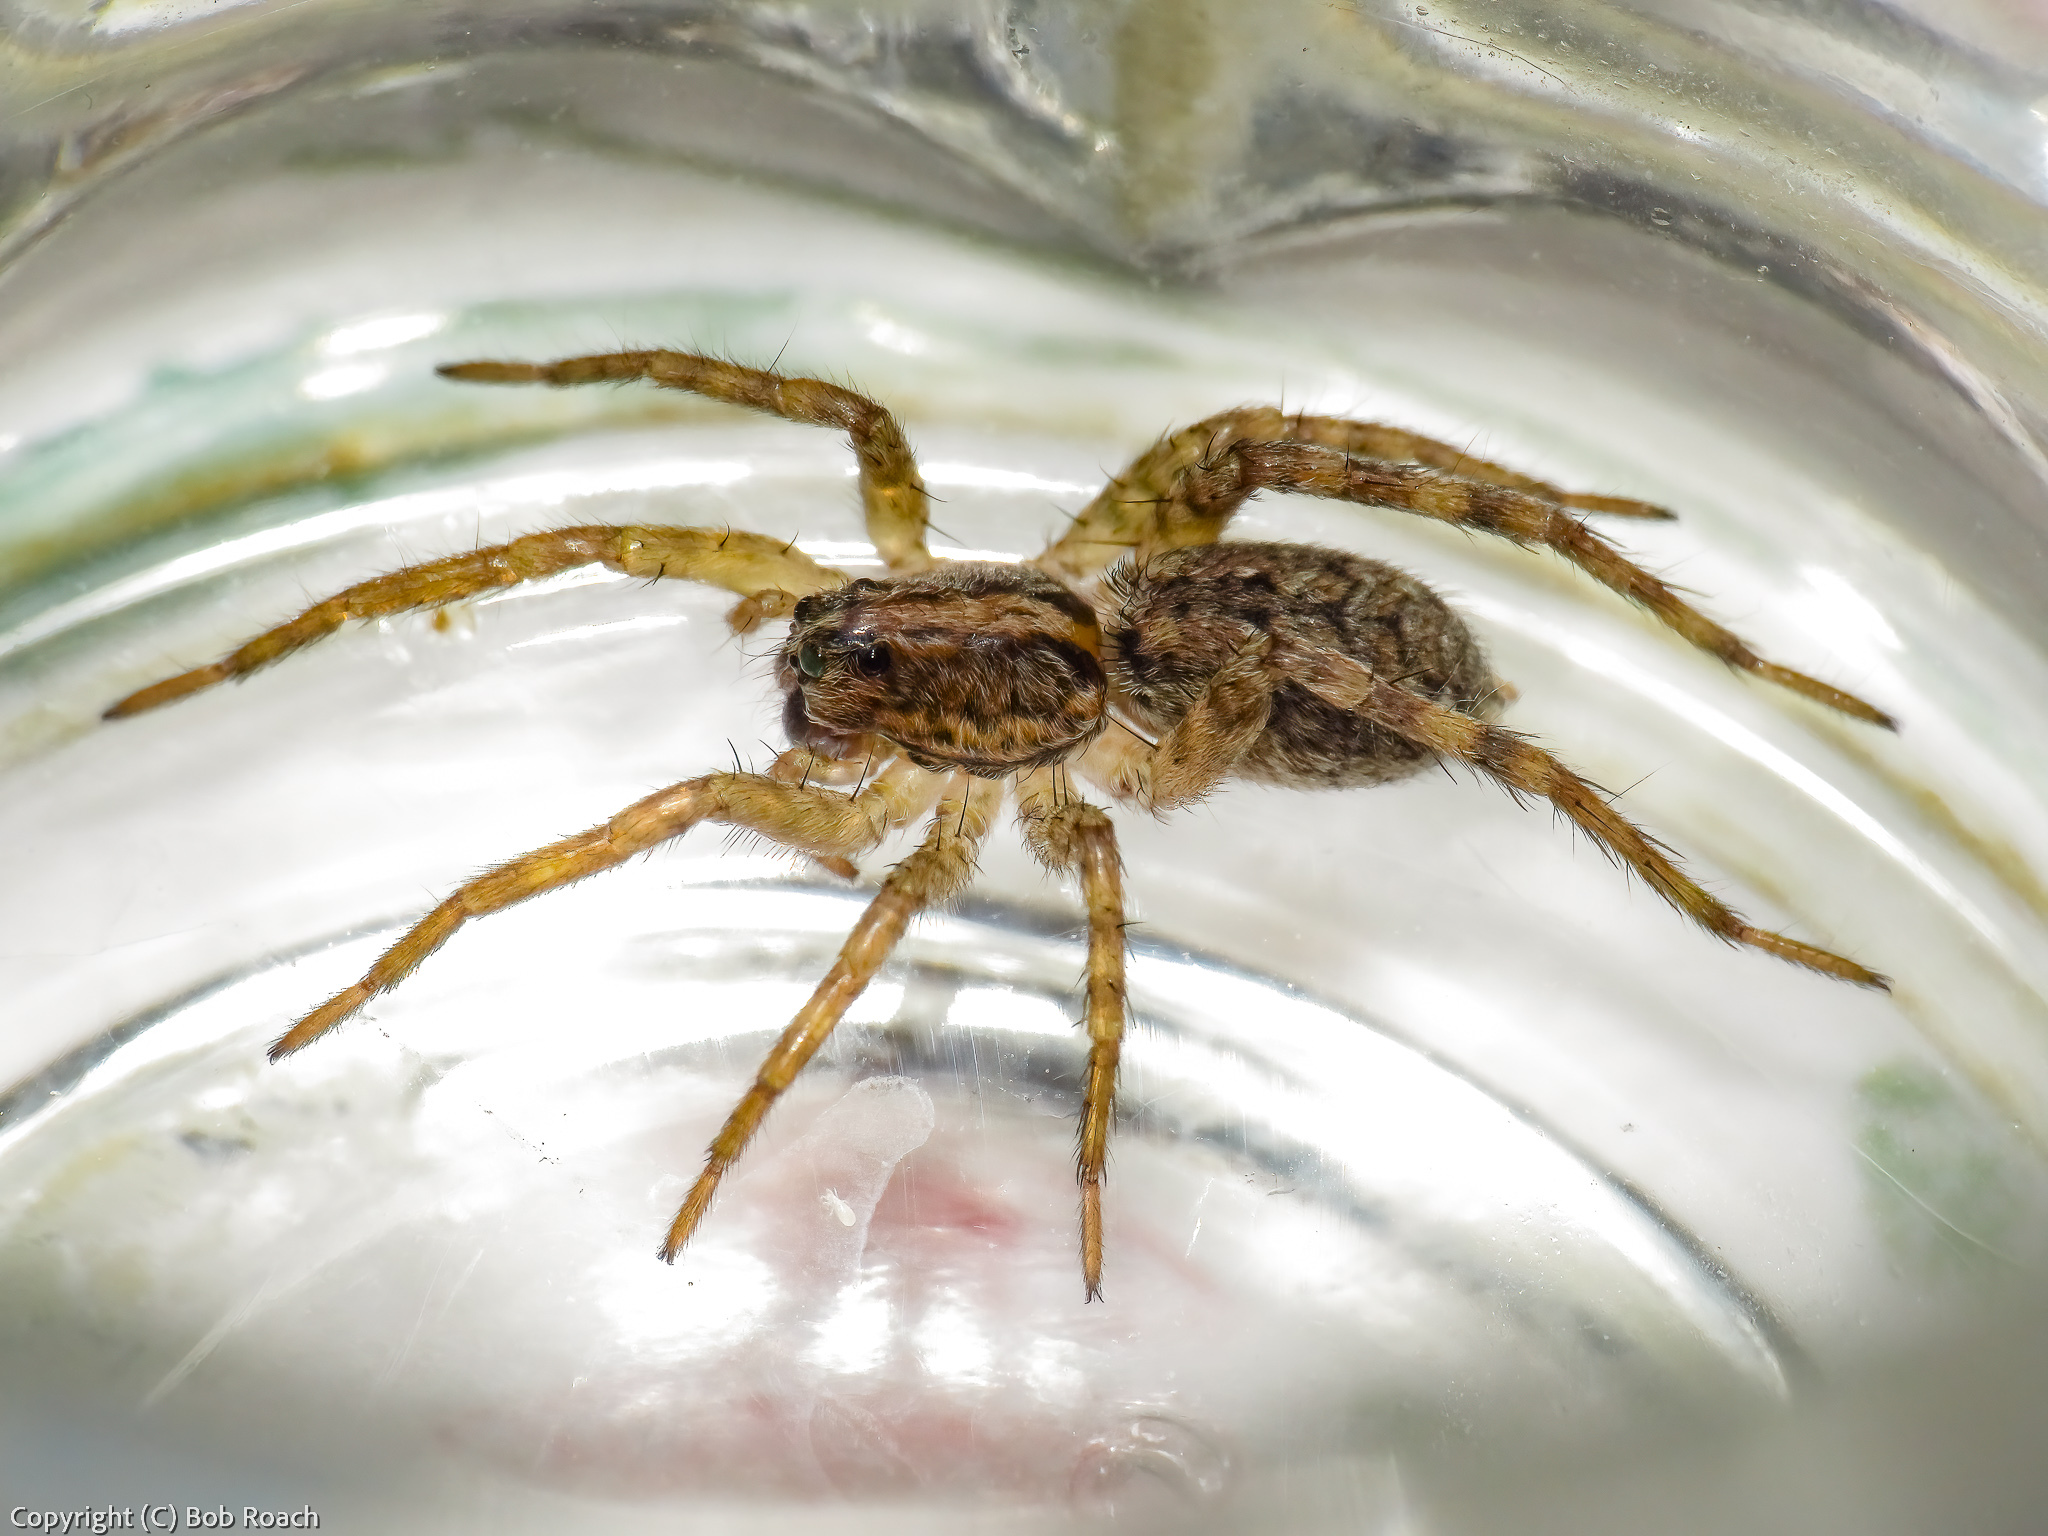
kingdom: Animalia
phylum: Arthropoda
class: Arachnida
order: Araneae
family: Lycosidae
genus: Hogna
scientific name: Hogna antelucana
